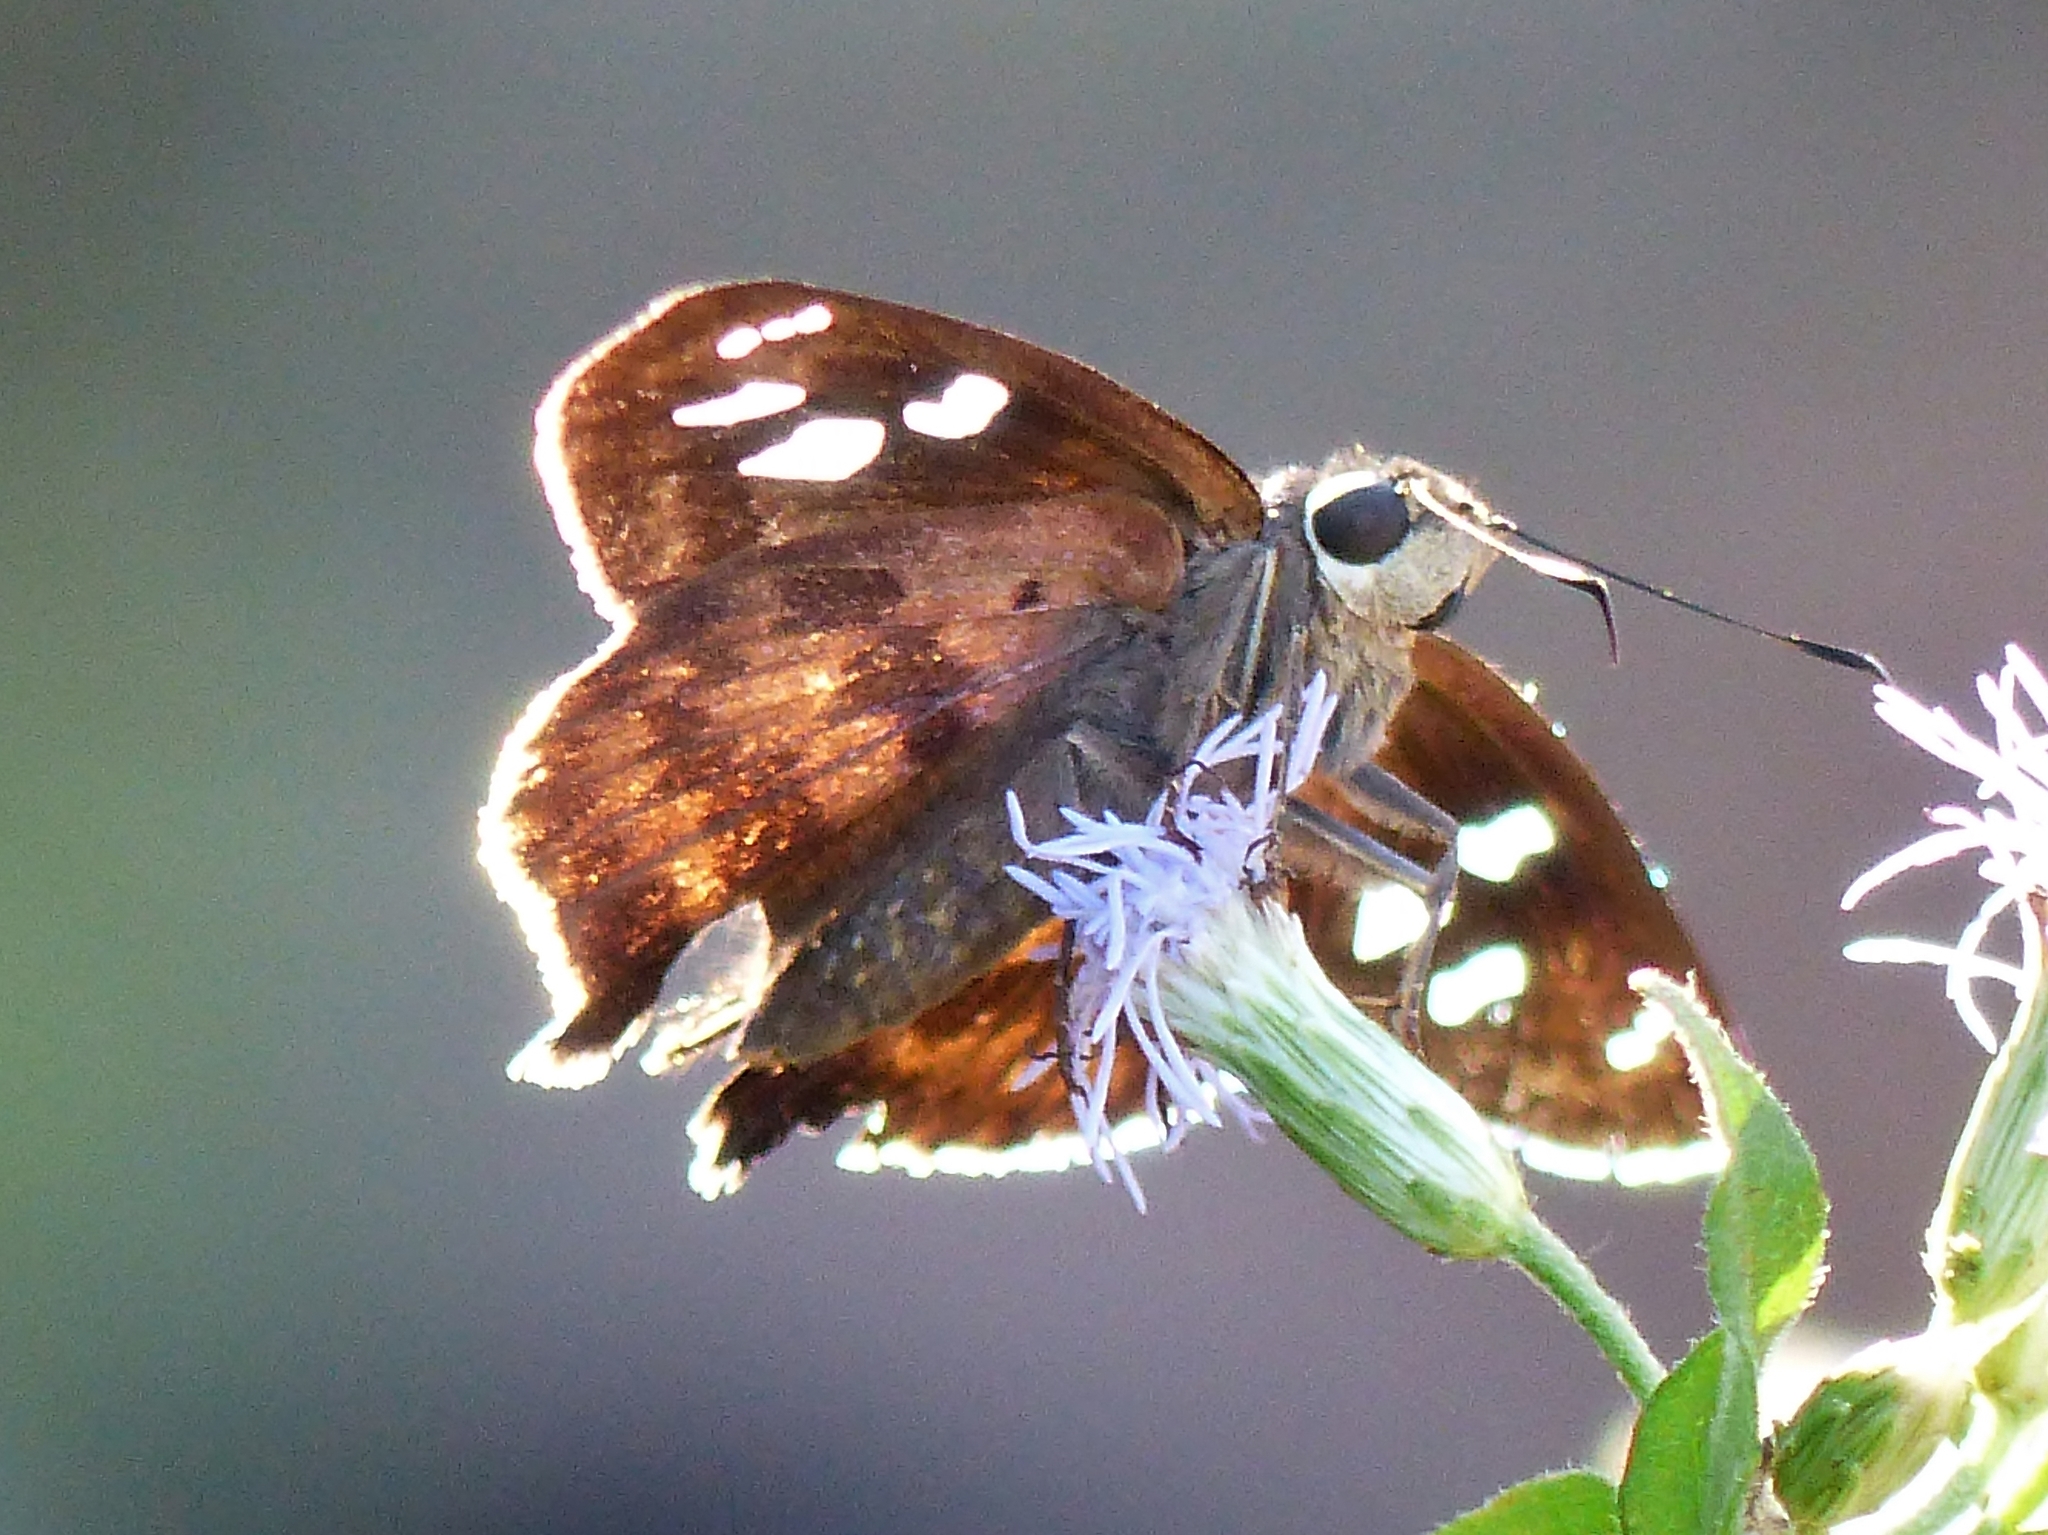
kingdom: Animalia
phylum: Arthropoda
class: Insecta
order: Lepidoptera
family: Hesperiidae
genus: Polygonus
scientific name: Polygonus leo
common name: Hammoch skipper
